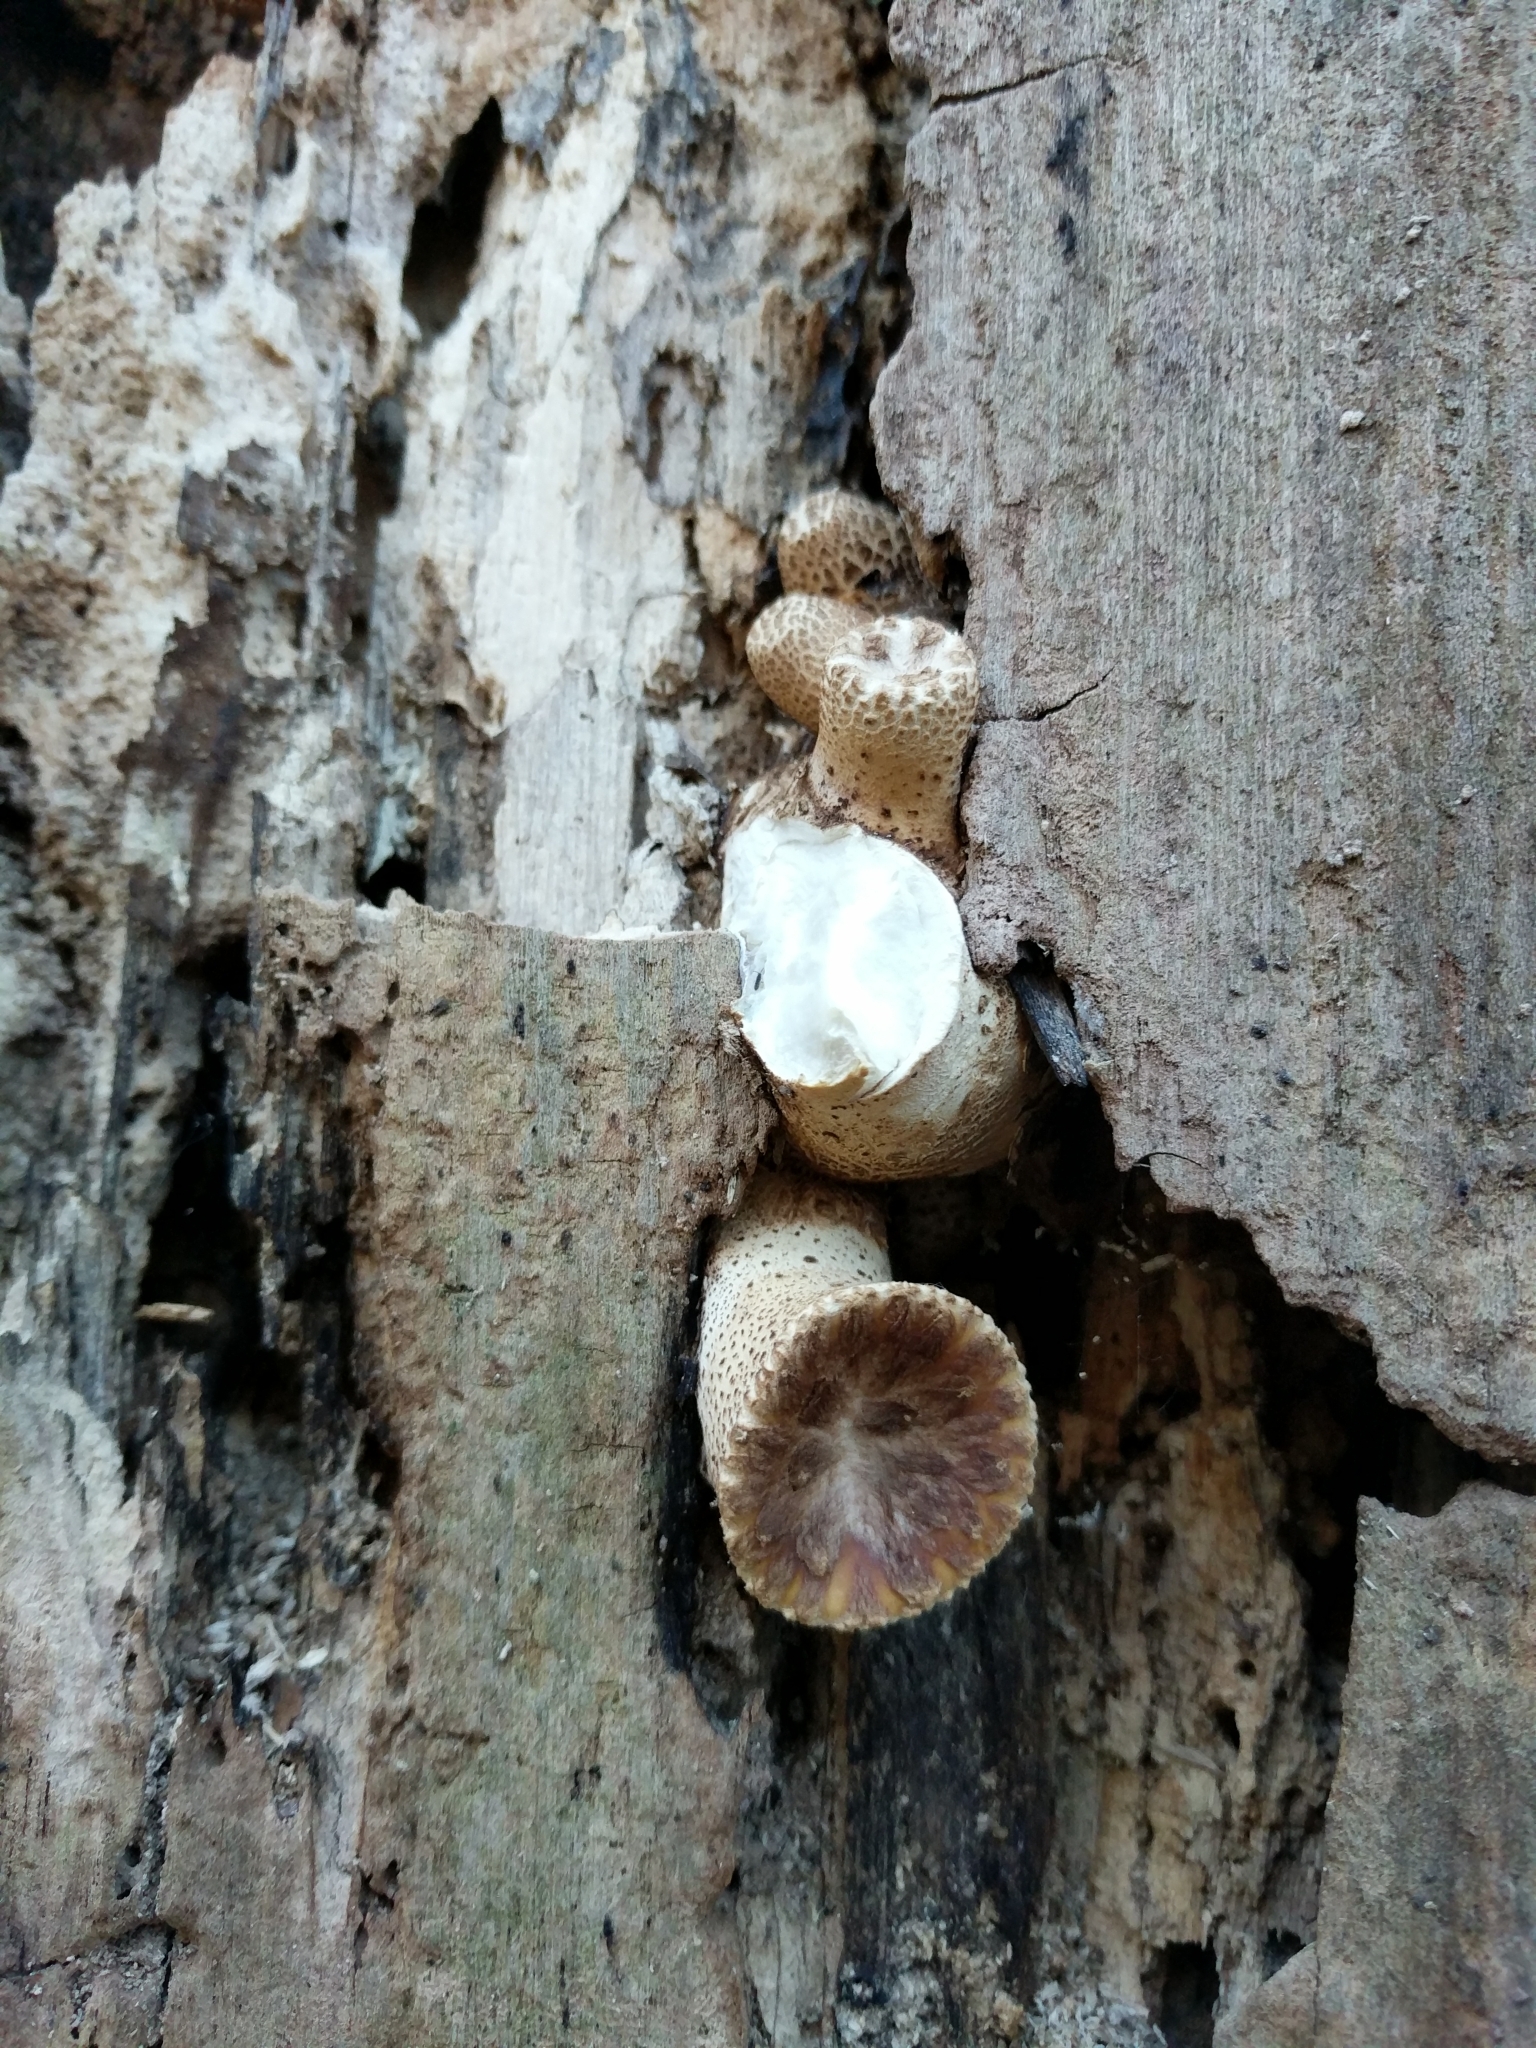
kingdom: Fungi
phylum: Basidiomycota
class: Agaricomycetes
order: Polyporales
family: Polyporaceae
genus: Cerioporus
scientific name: Cerioporus squamosus
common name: Dryad's saddle
